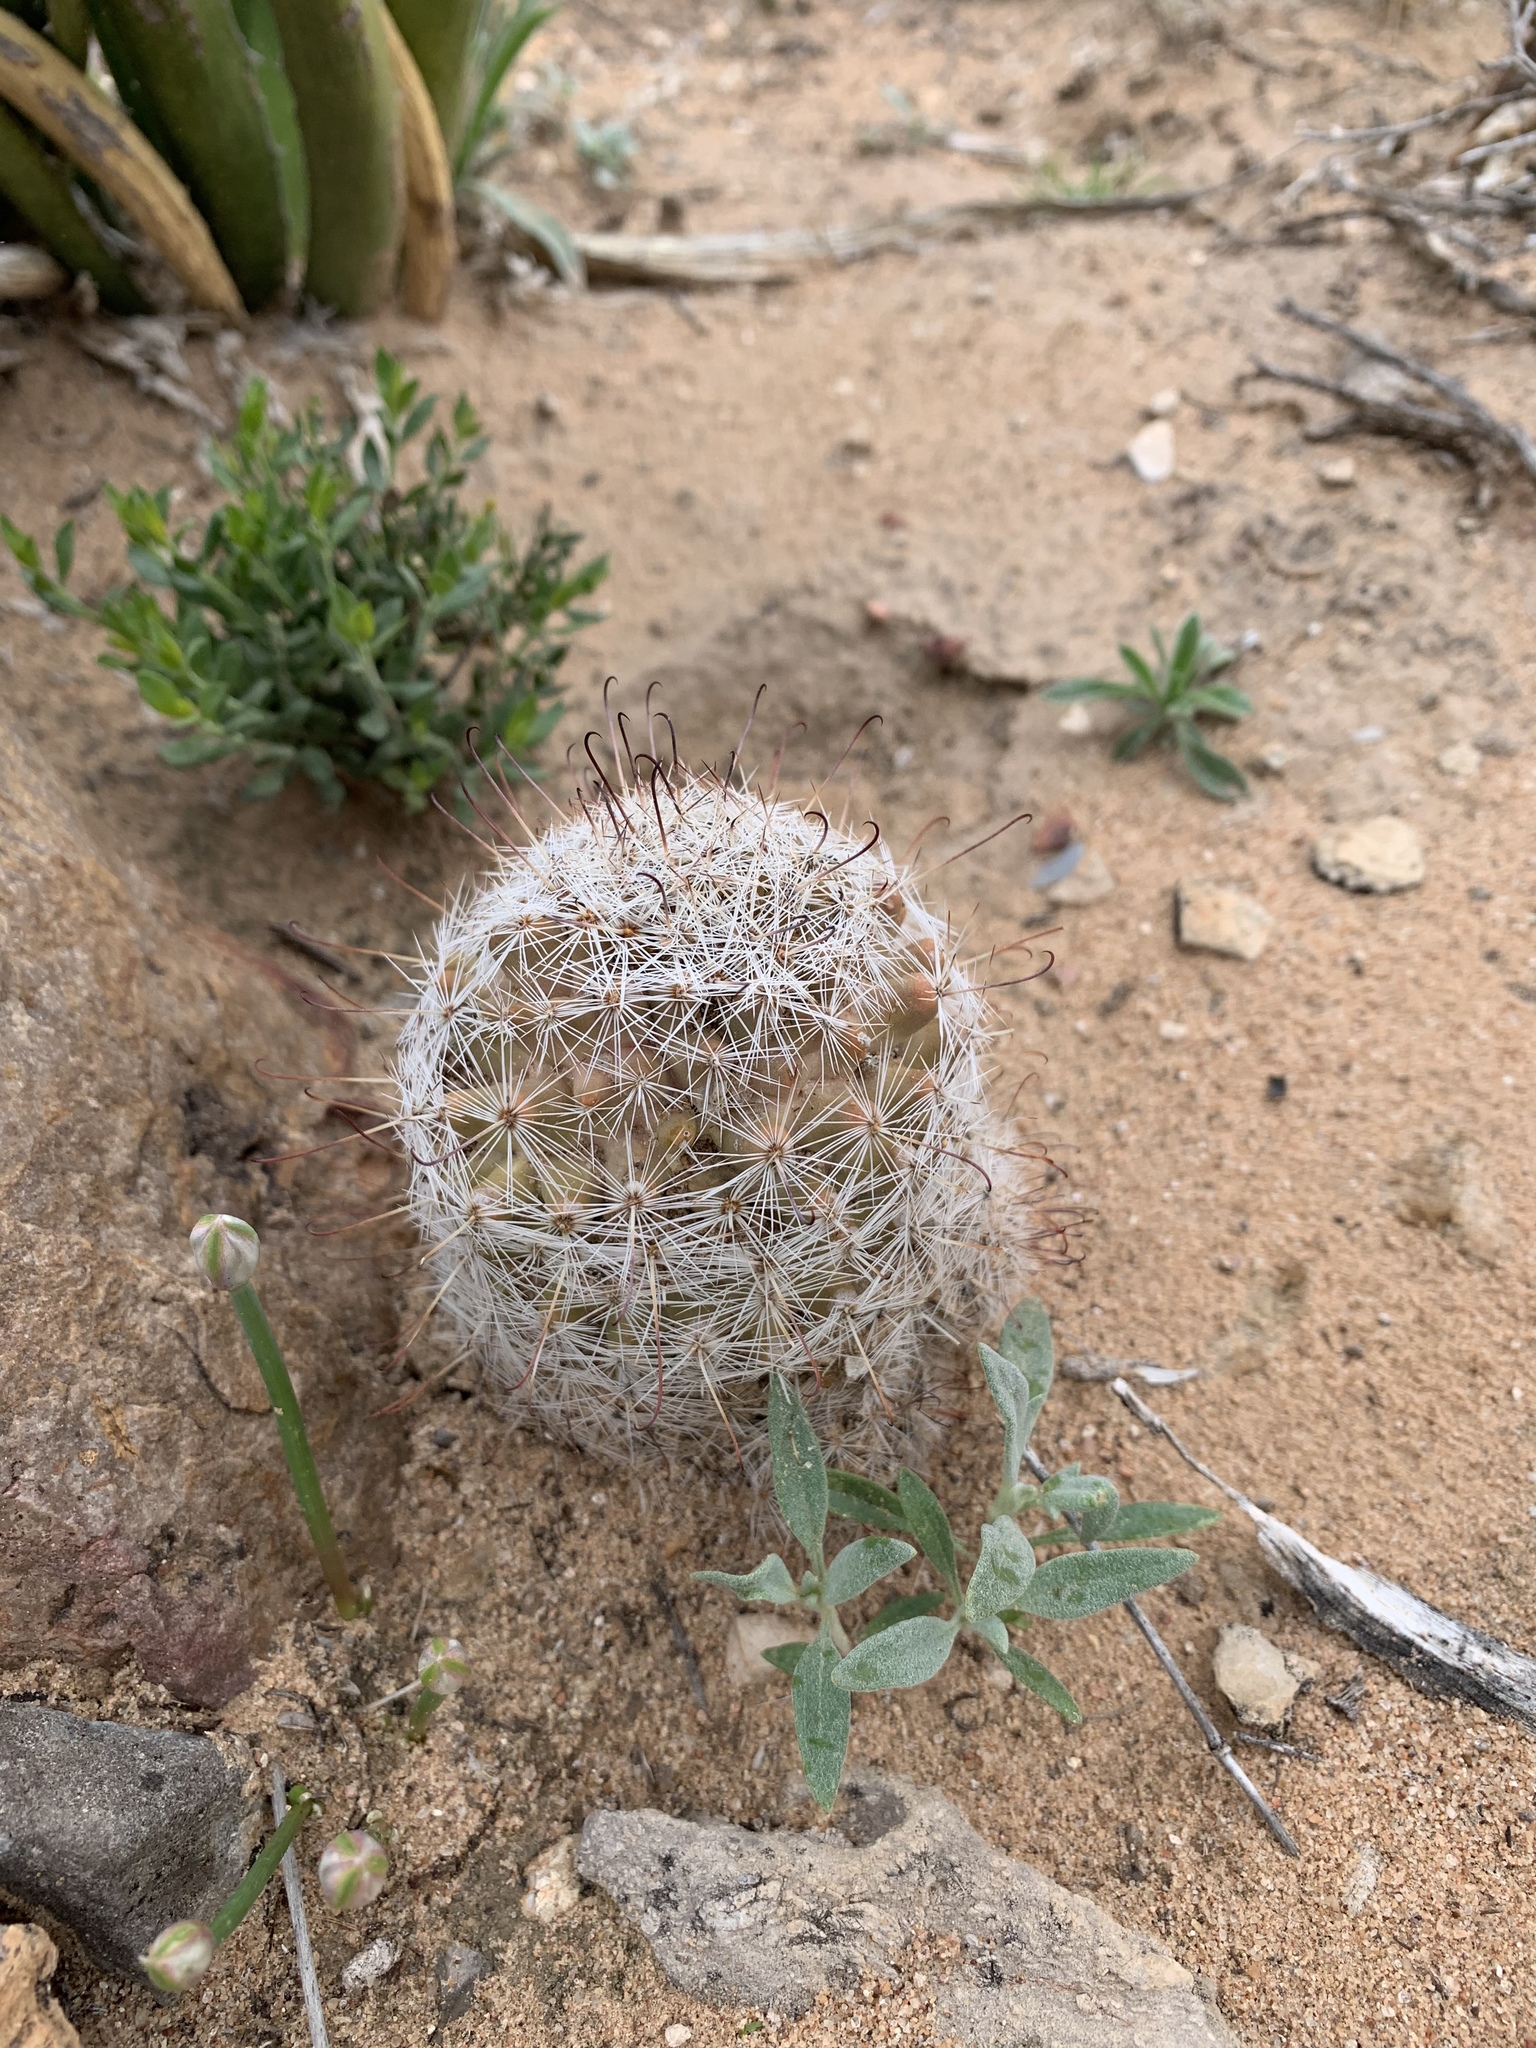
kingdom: Plantae
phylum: Tracheophyta
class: Magnoliopsida
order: Caryophyllales
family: Cactaceae
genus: Cochemiea
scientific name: Cochemiea grahamii
